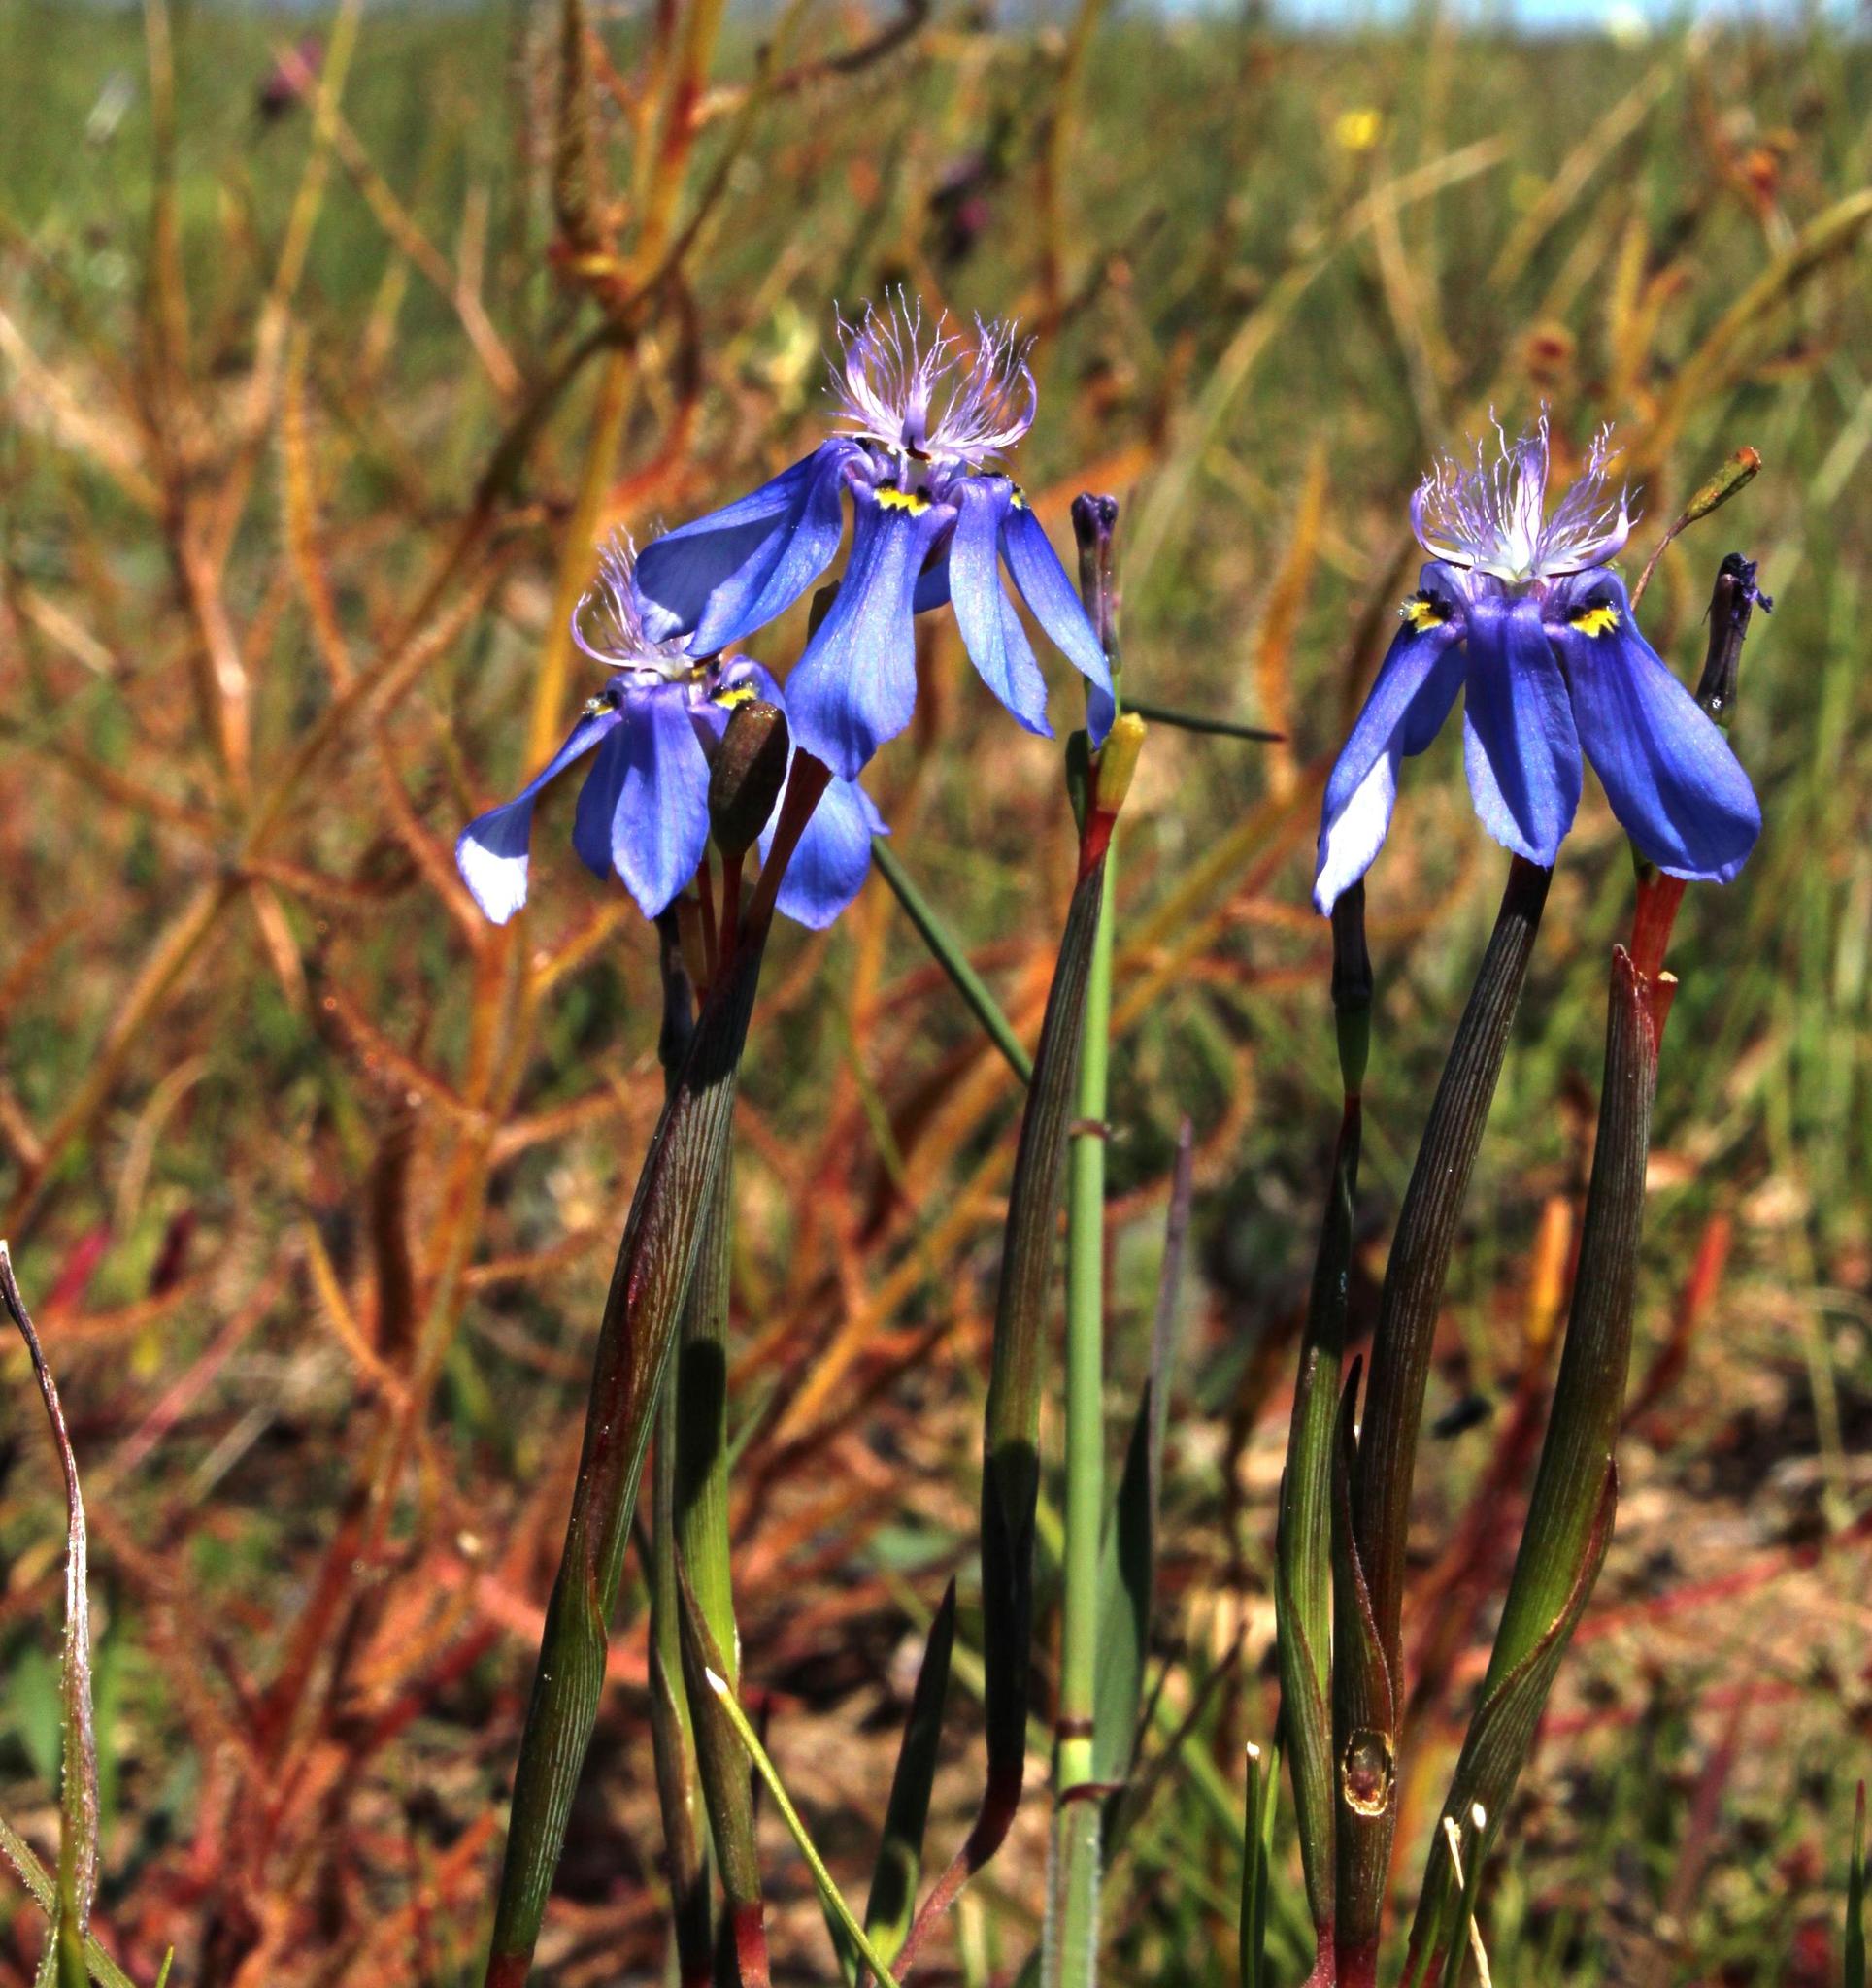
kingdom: Plantae
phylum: Tracheophyta
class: Liliopsida
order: Asparagales
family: Iridaceae
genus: Moraea
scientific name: Moraea lugubris
